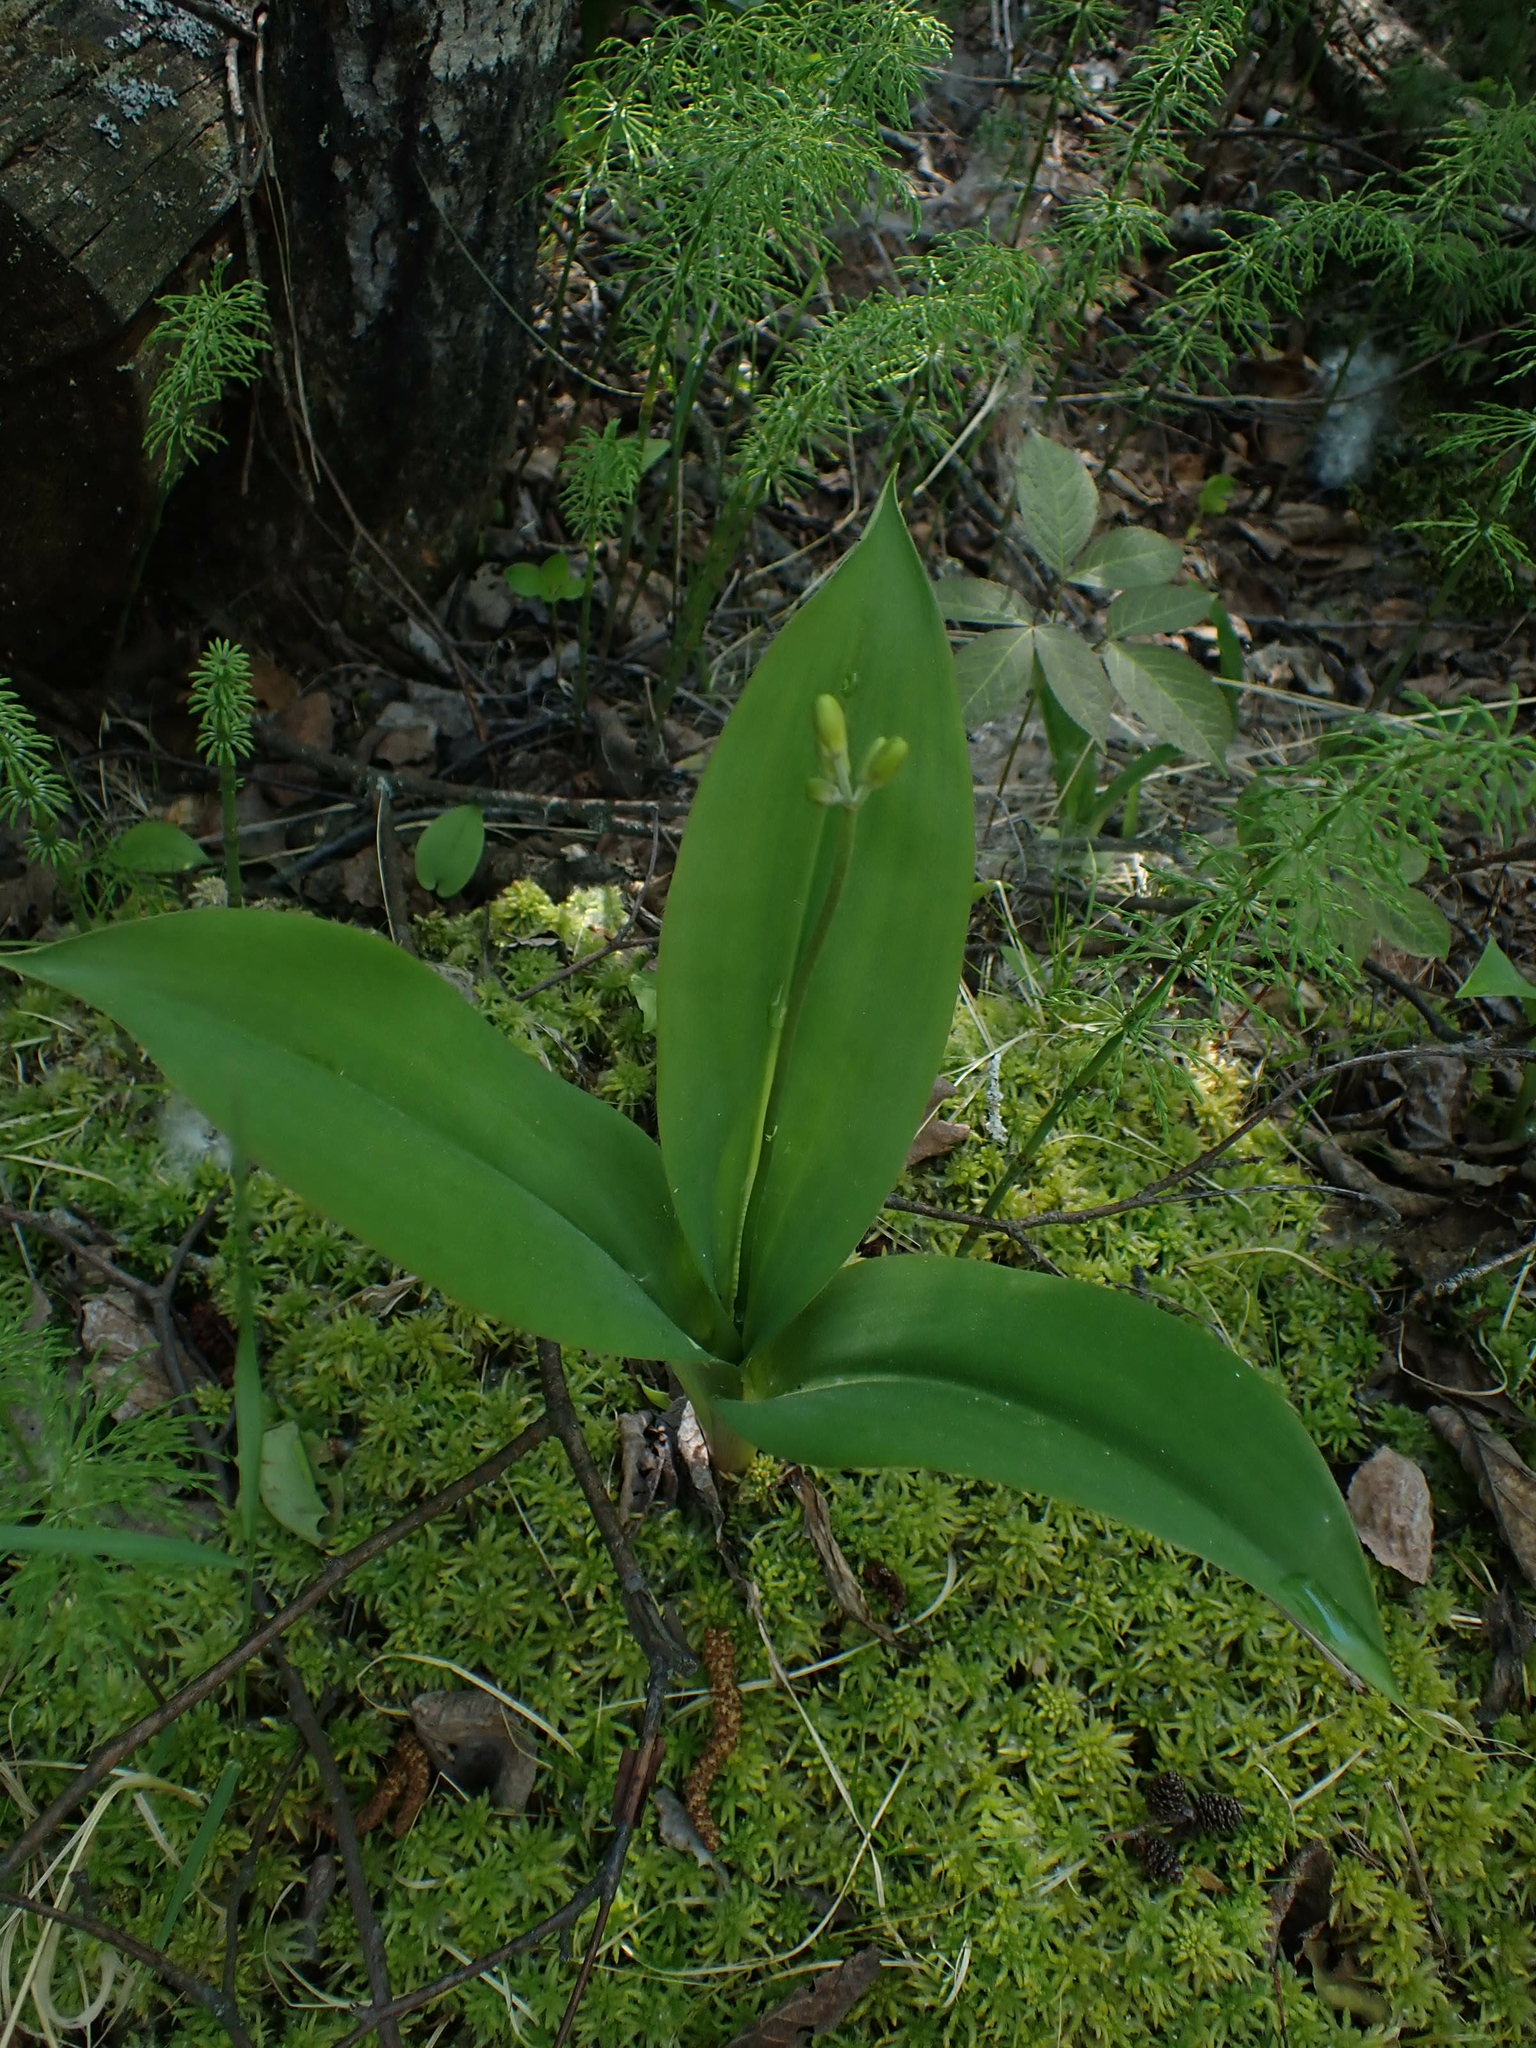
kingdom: Plantae
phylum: Tracheophyta
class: Liliopsida
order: Liliales
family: Liliaceae
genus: Clintonia
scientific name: Clintonia borealis
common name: Yellow clintonia
